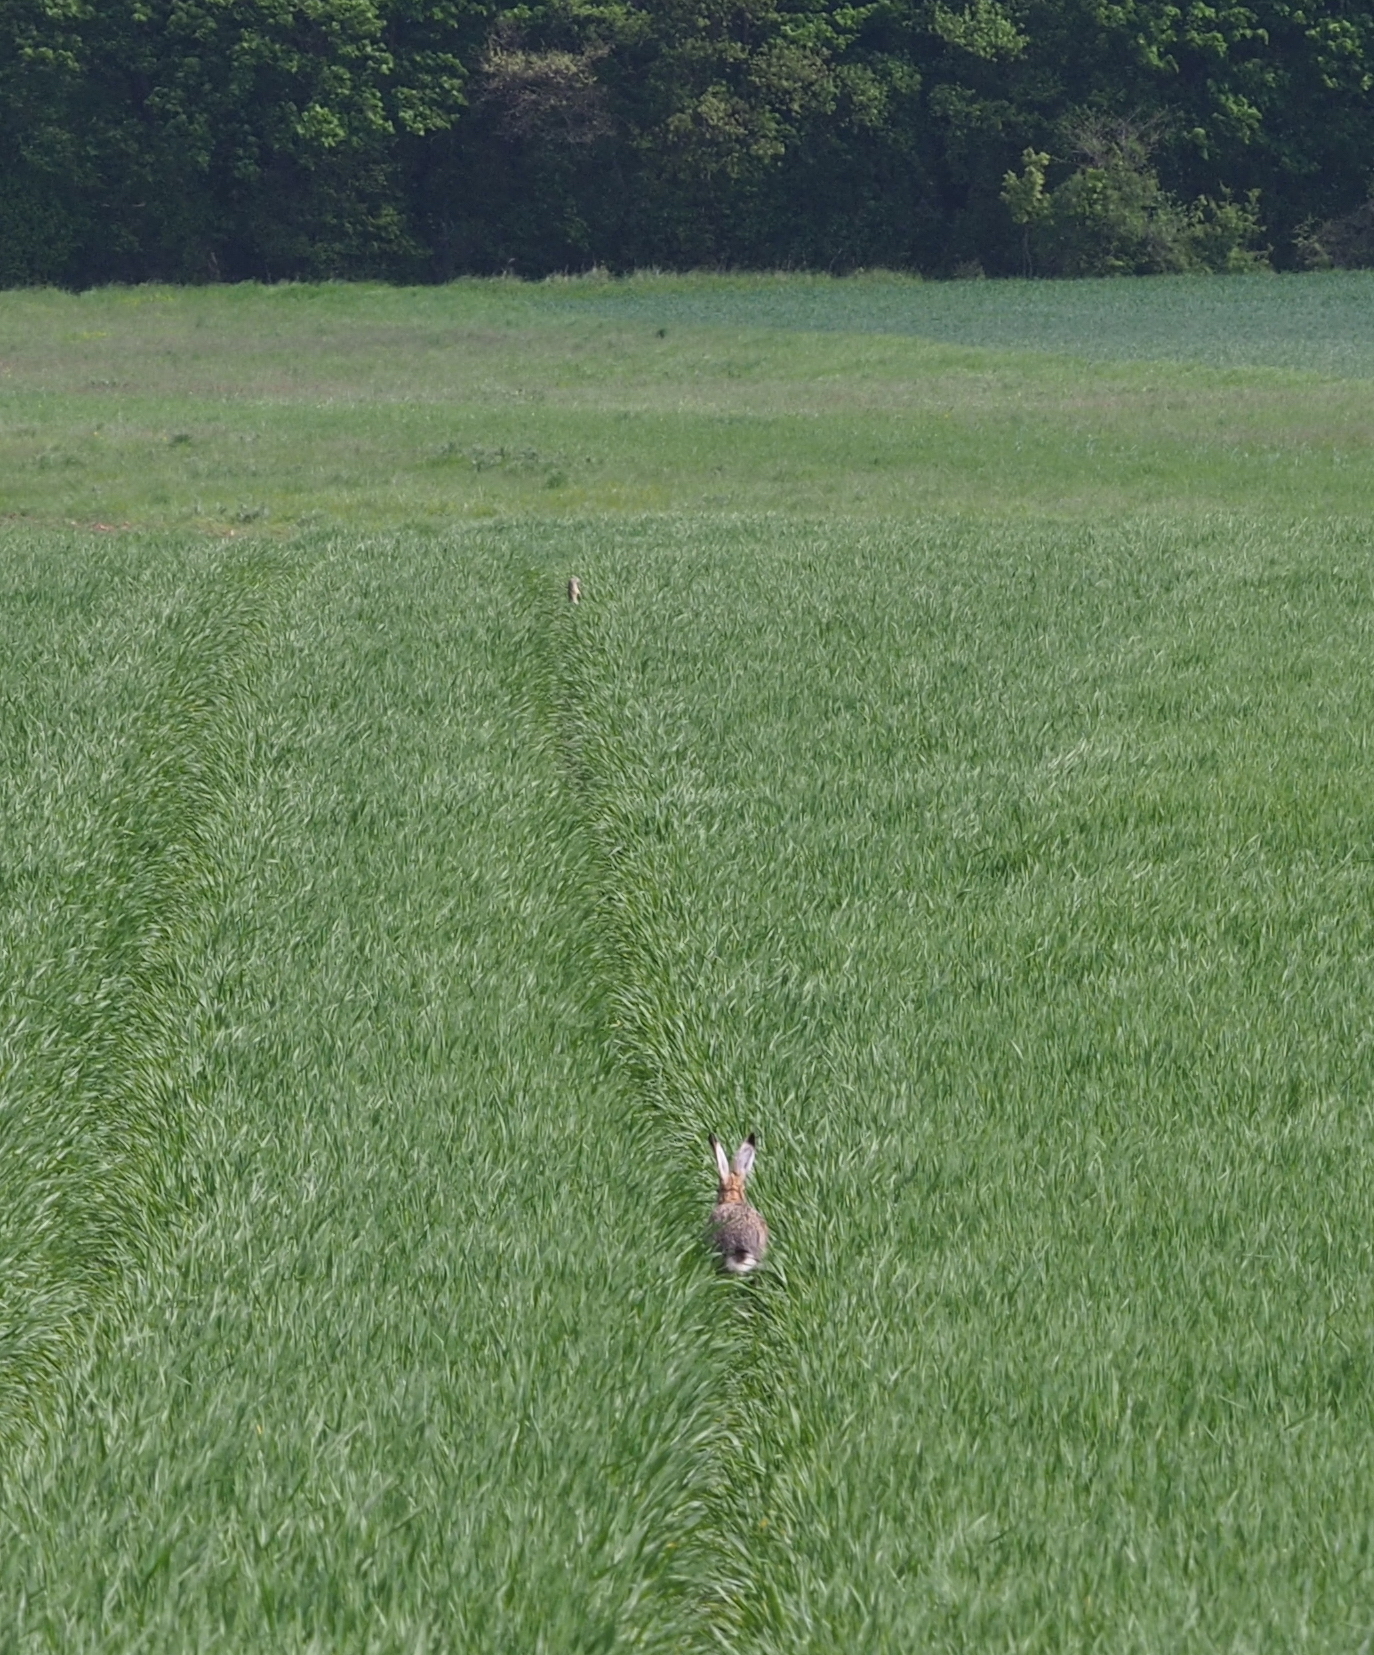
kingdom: Animalia
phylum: Chordata
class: Mammalia
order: Rodentia
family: Sciuridae
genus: Spermophilus
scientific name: Spermophilus citellus
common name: European ground squirrel
